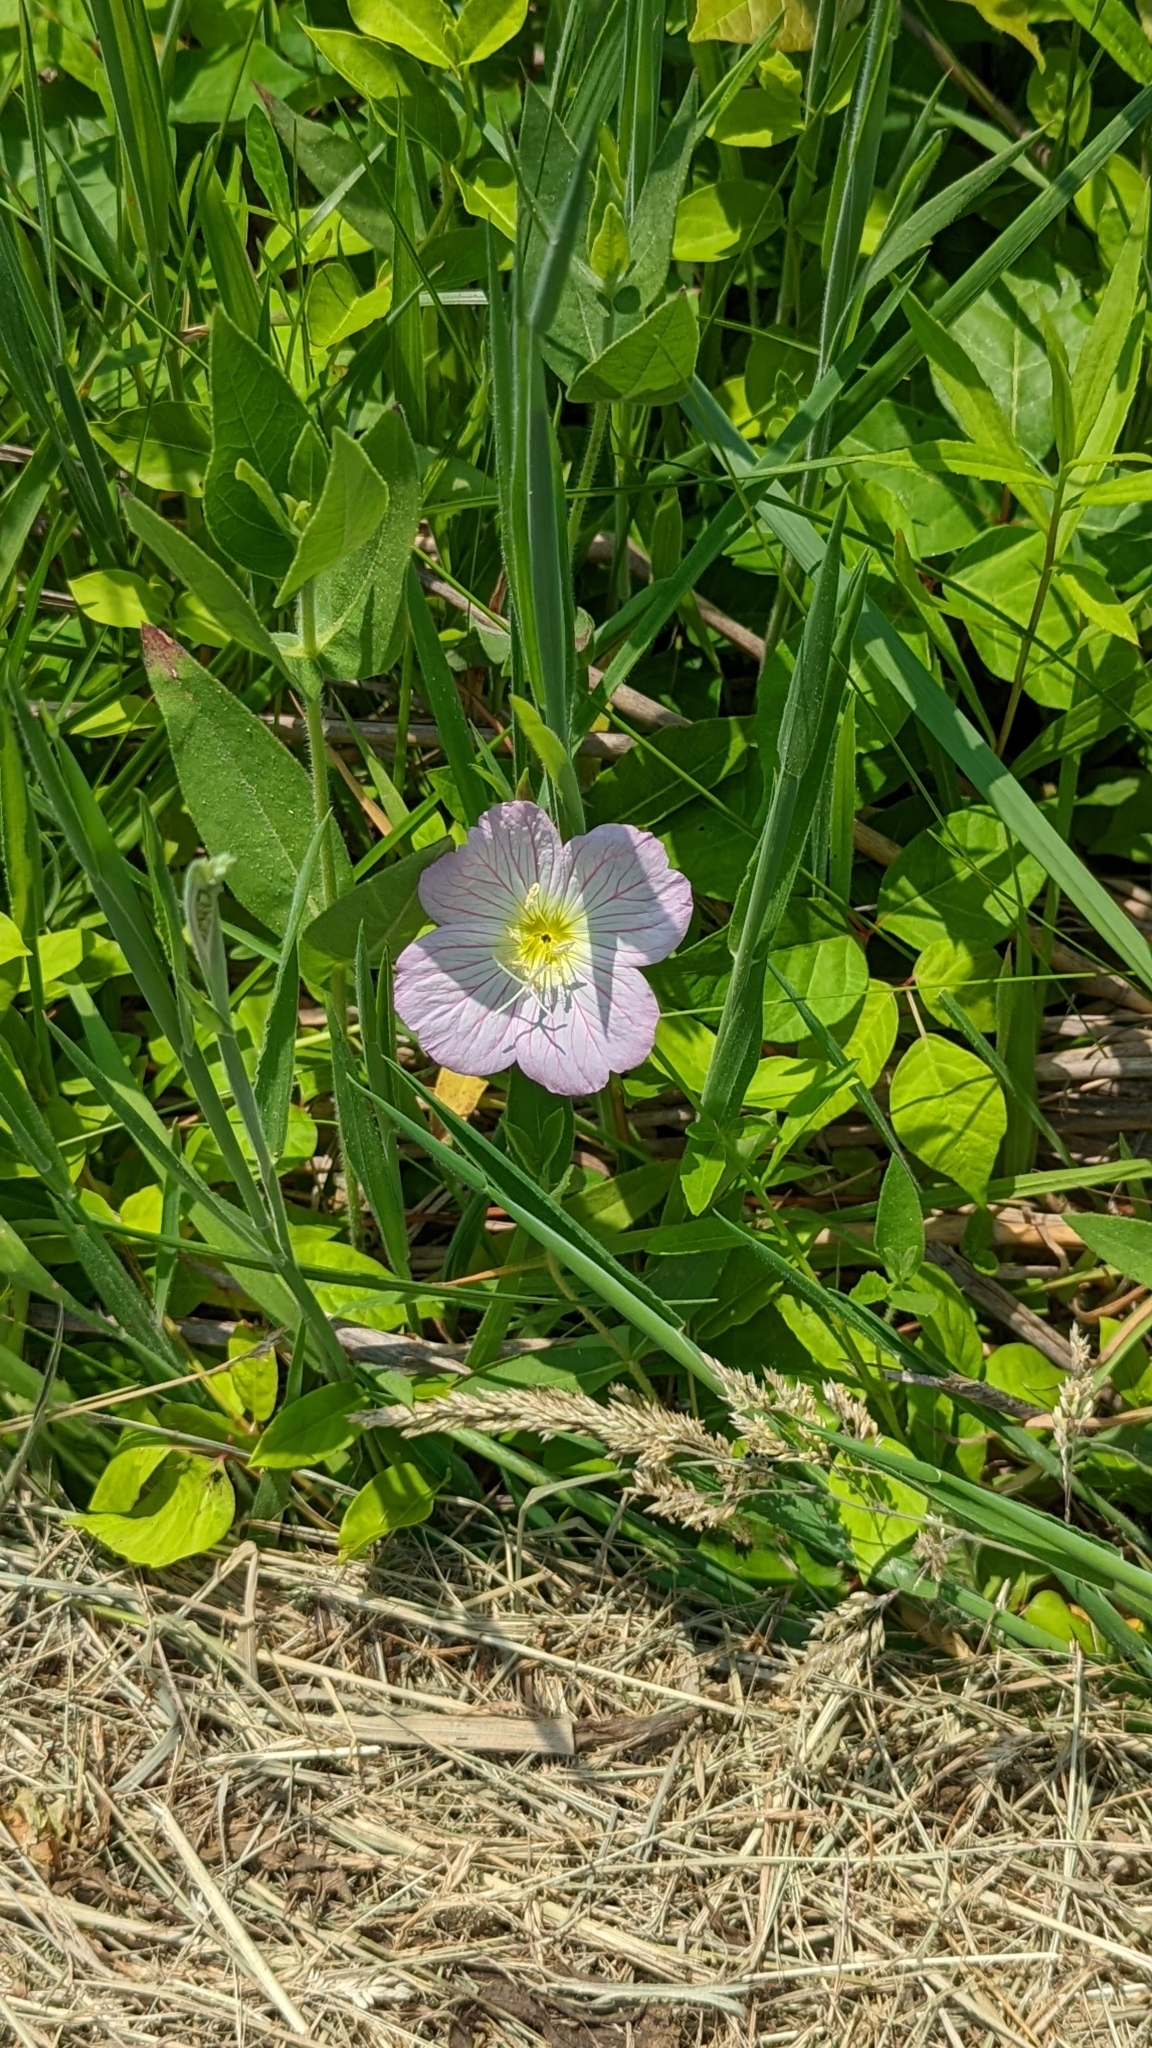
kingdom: Plantae
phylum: Tracheophyta
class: Magnoliopsida
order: Myrtales
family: Onagraceae
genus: Oenothera
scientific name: Oenothera speciosa
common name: White evening-primrose
